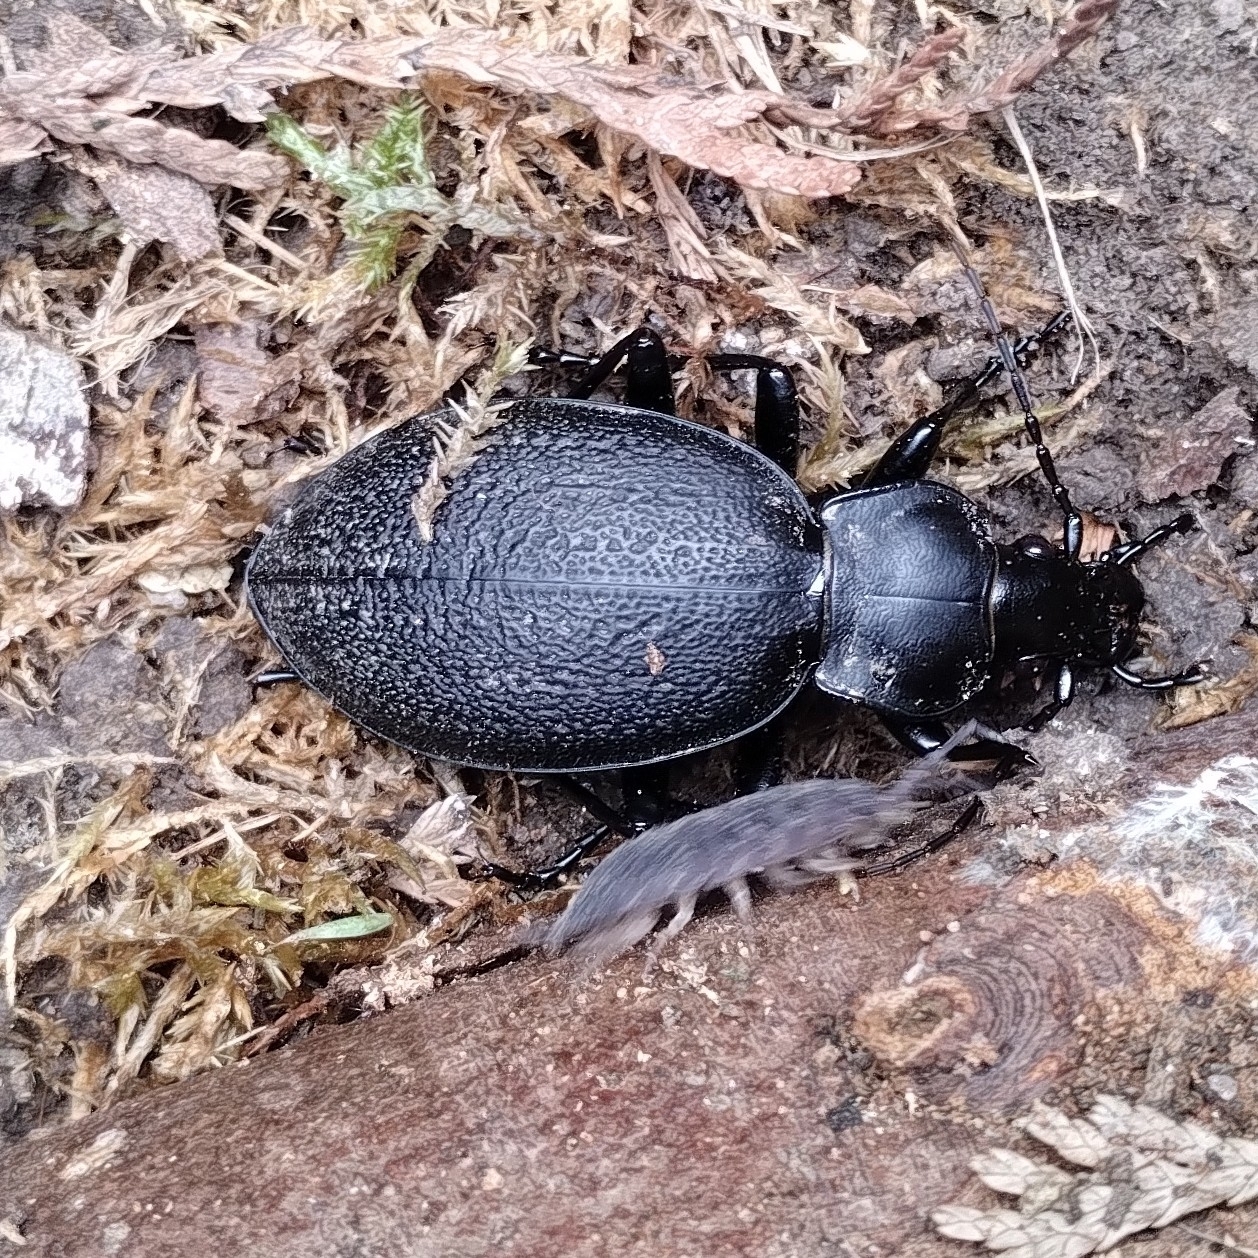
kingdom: Animalia
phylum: Arthropoda
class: Insecta
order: Coleoptera
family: Carabidae
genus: Carabus
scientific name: Carabus coriaceus
